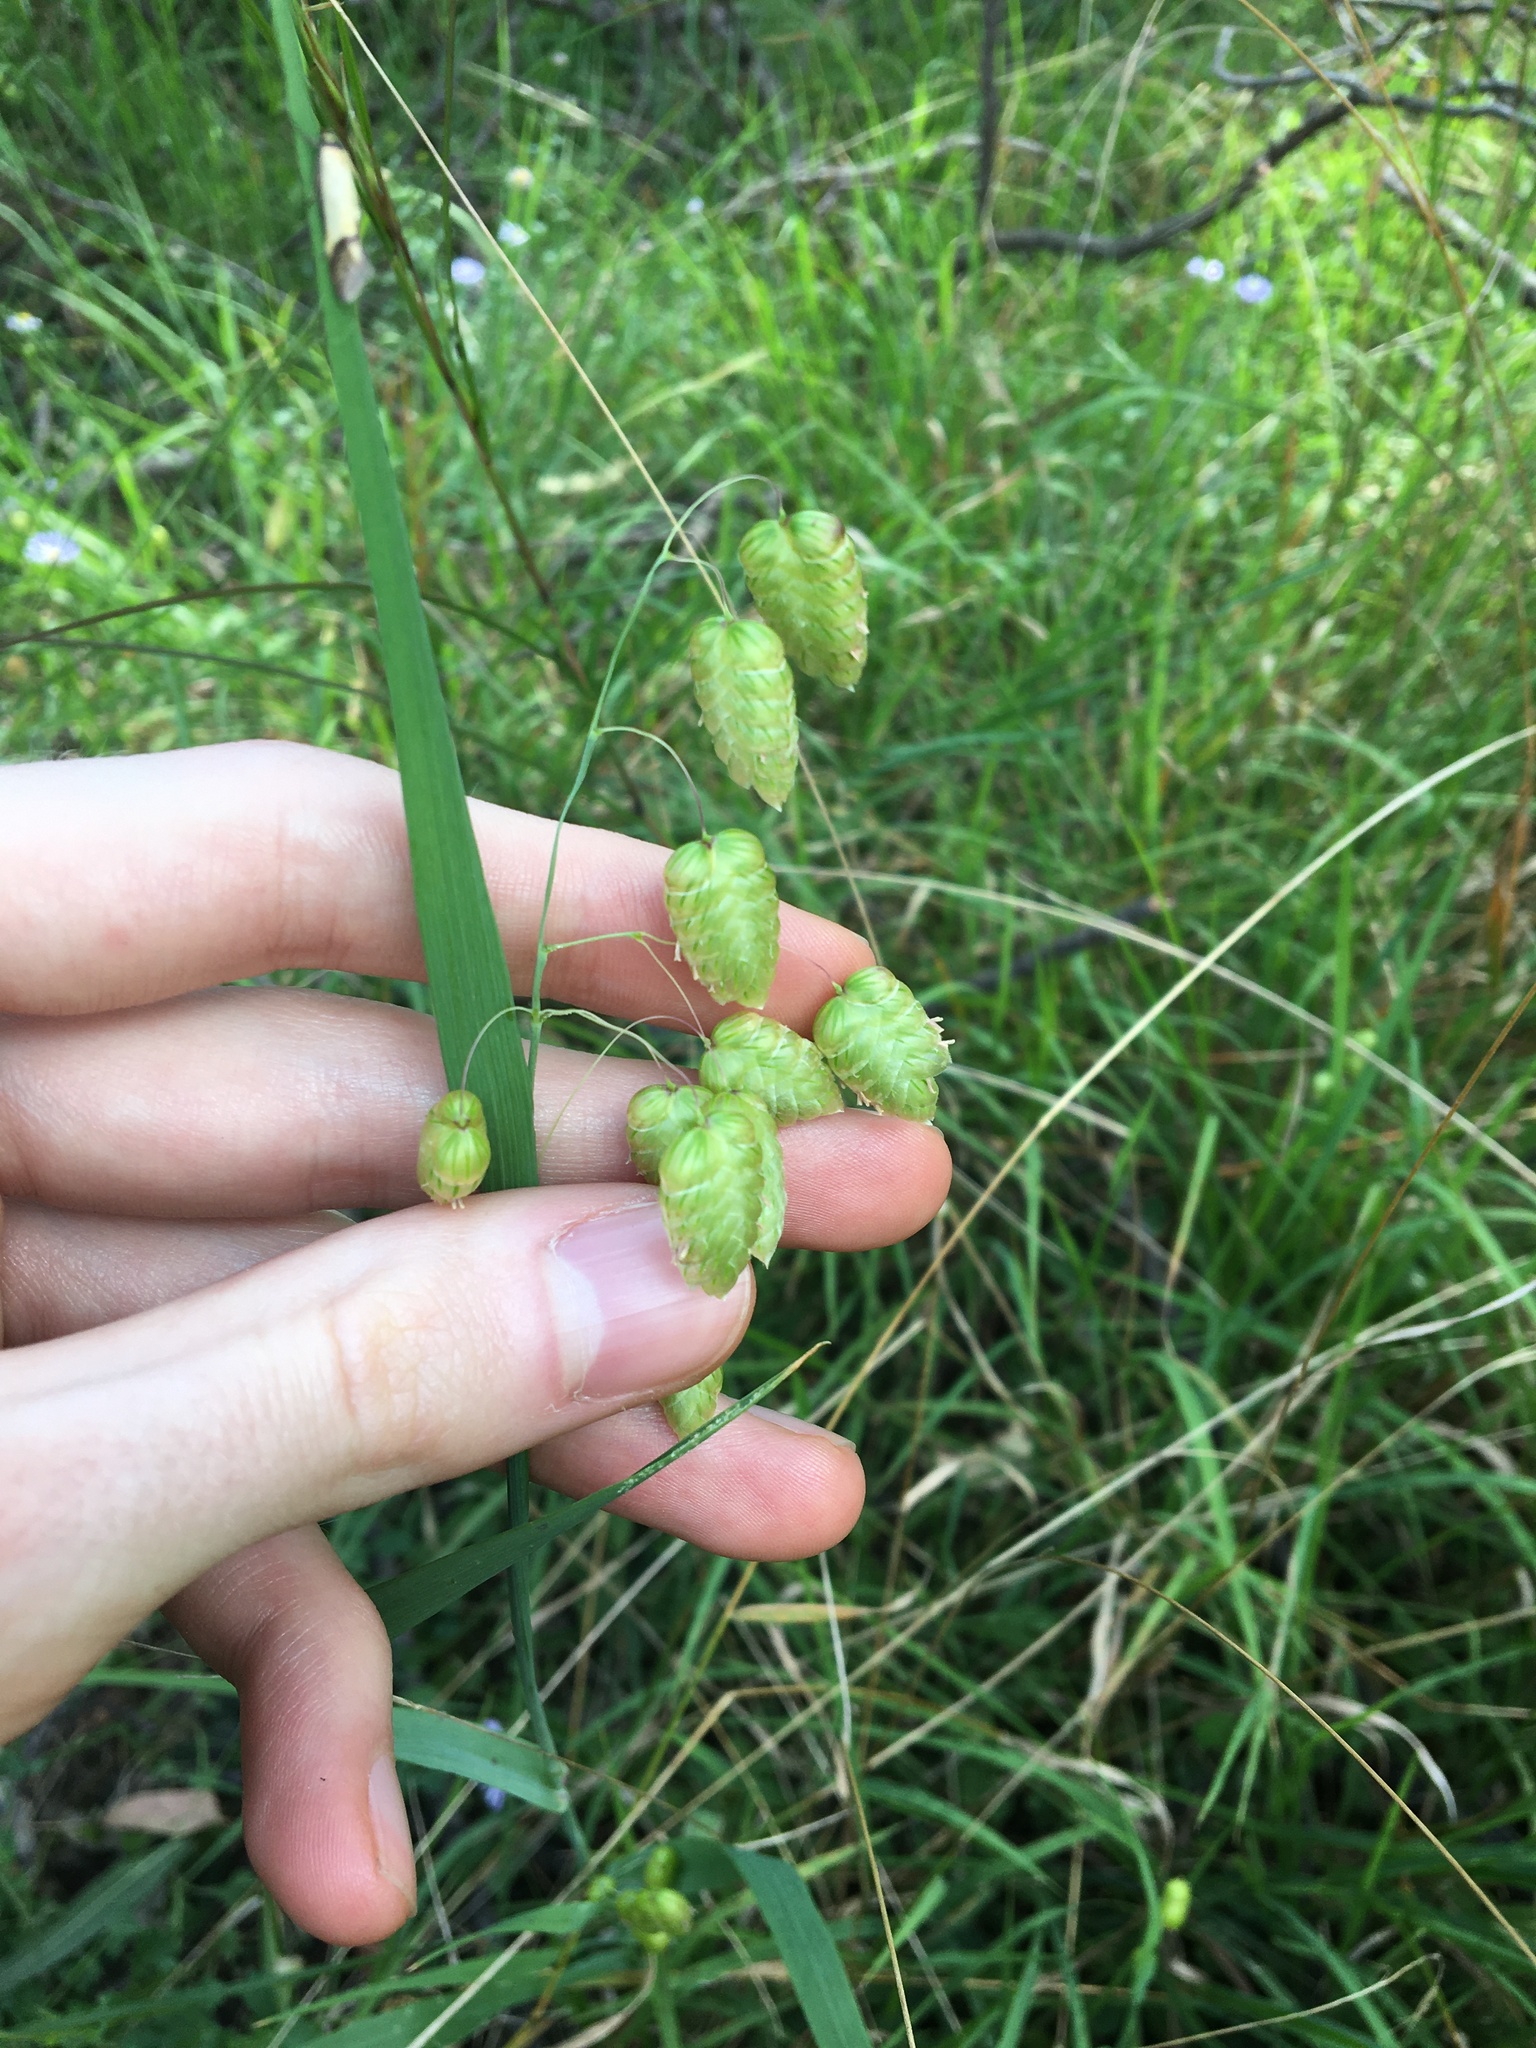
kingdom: Plantae
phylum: Tracheophyta
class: Liliopsida
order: Poales
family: Poaceae
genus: Briza
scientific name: Briza maxima
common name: Big quakinggrass
